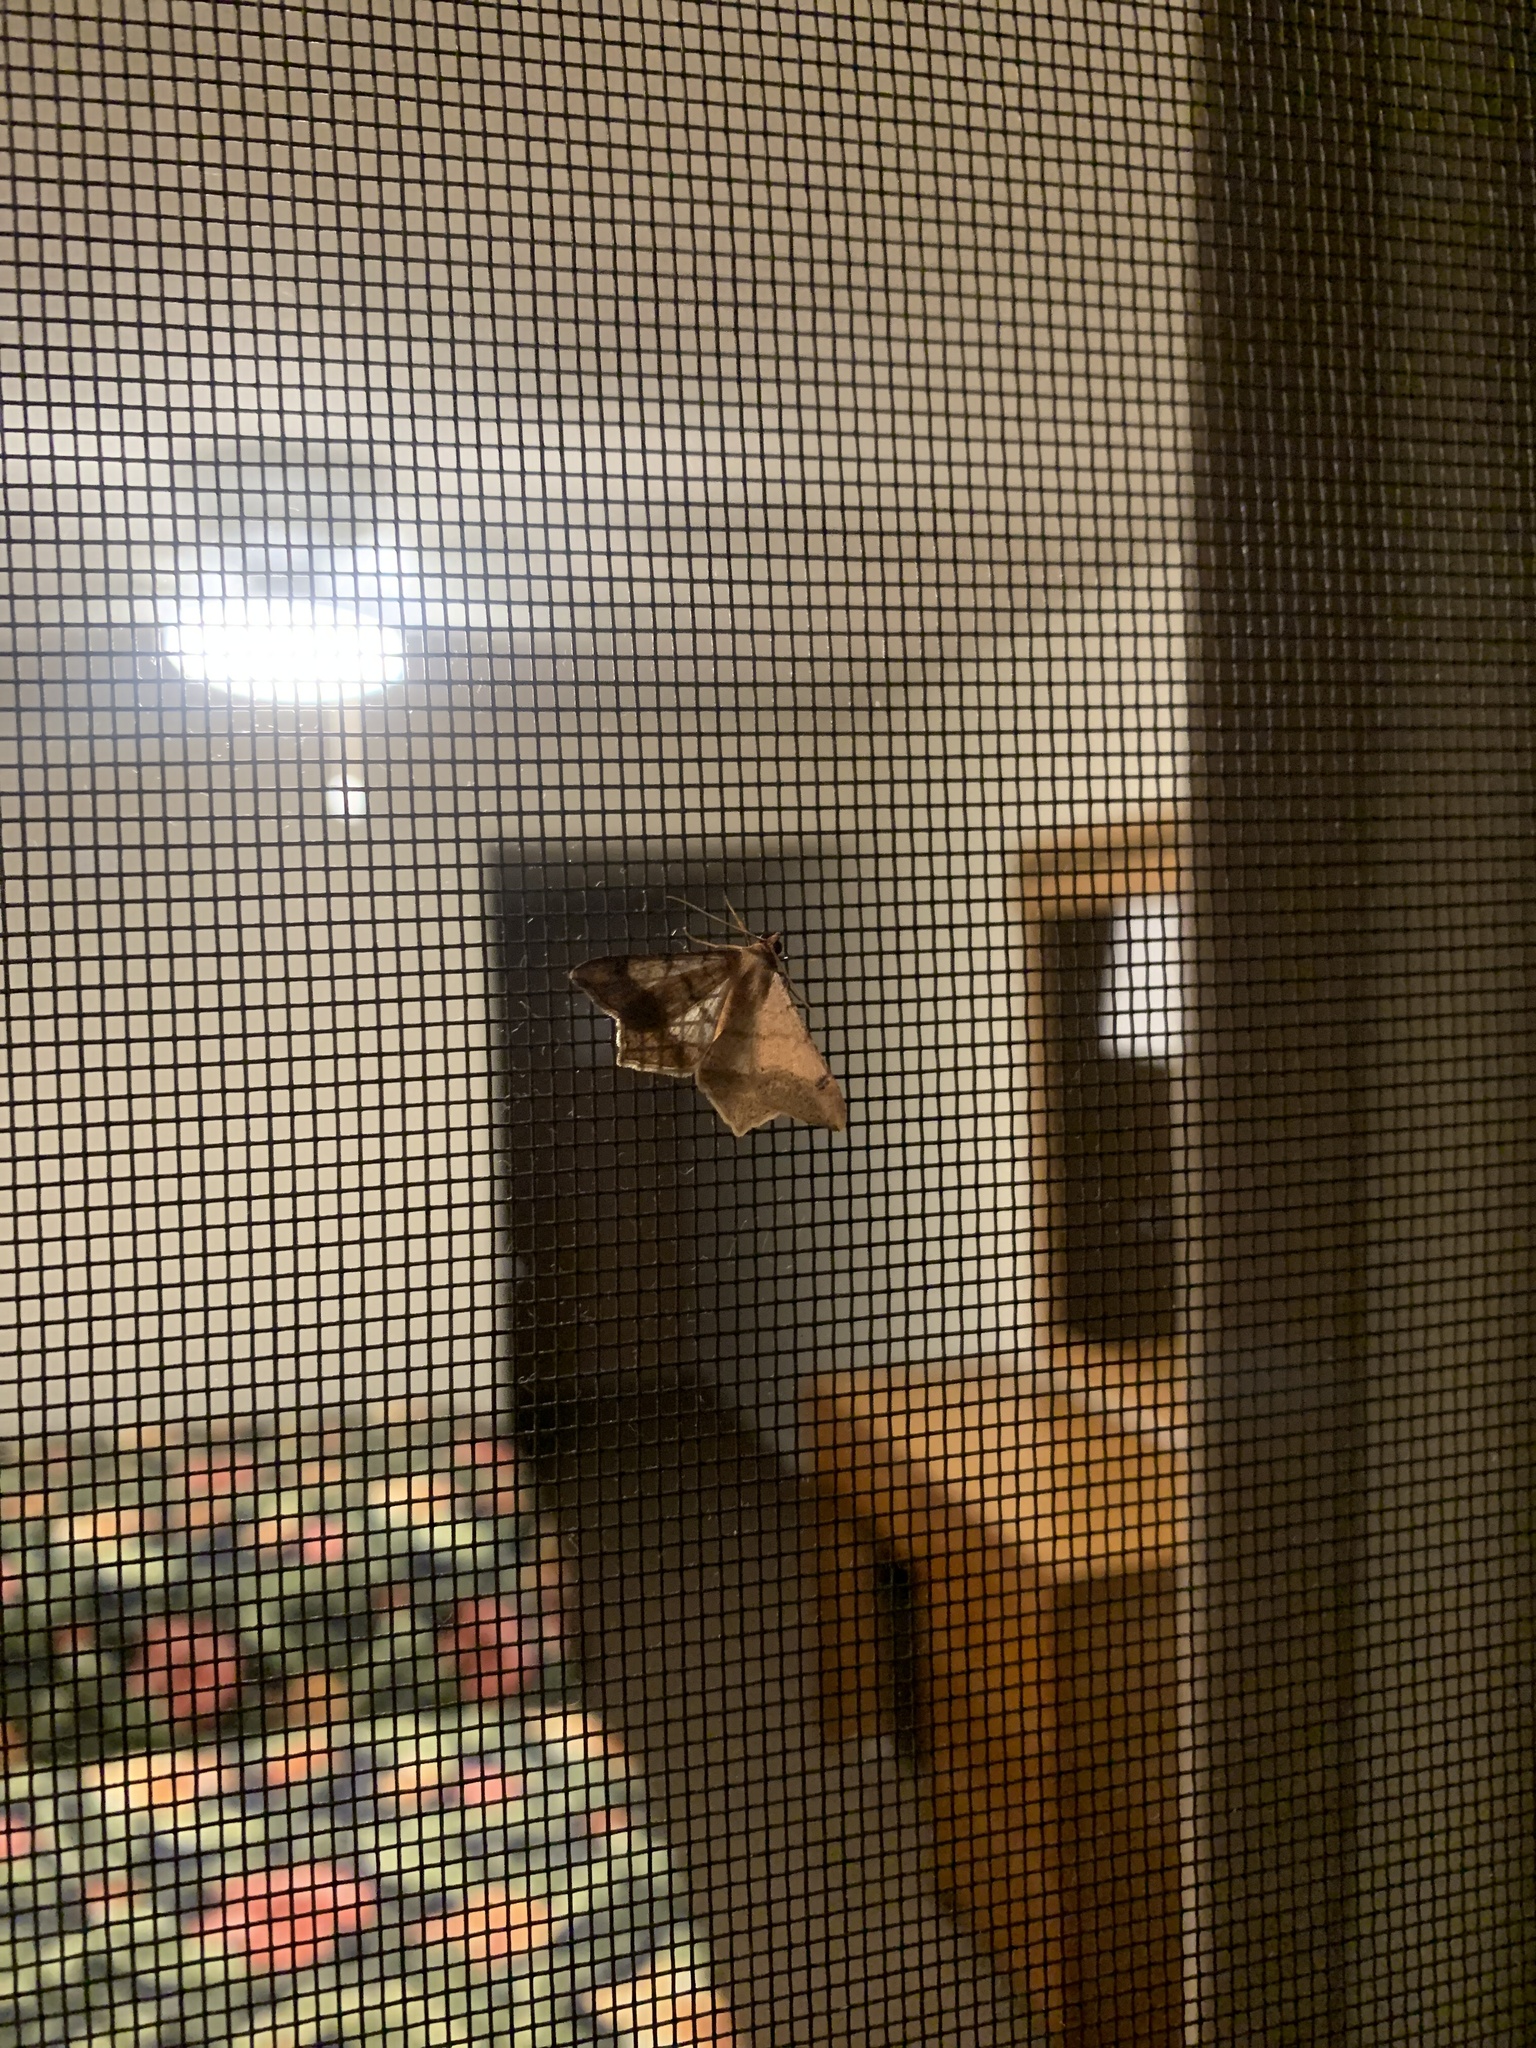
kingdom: Animalia
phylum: Arthropoda
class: Insecta
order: Lepidoptera
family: Geometridae
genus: Macaria
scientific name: Macaria abydata
